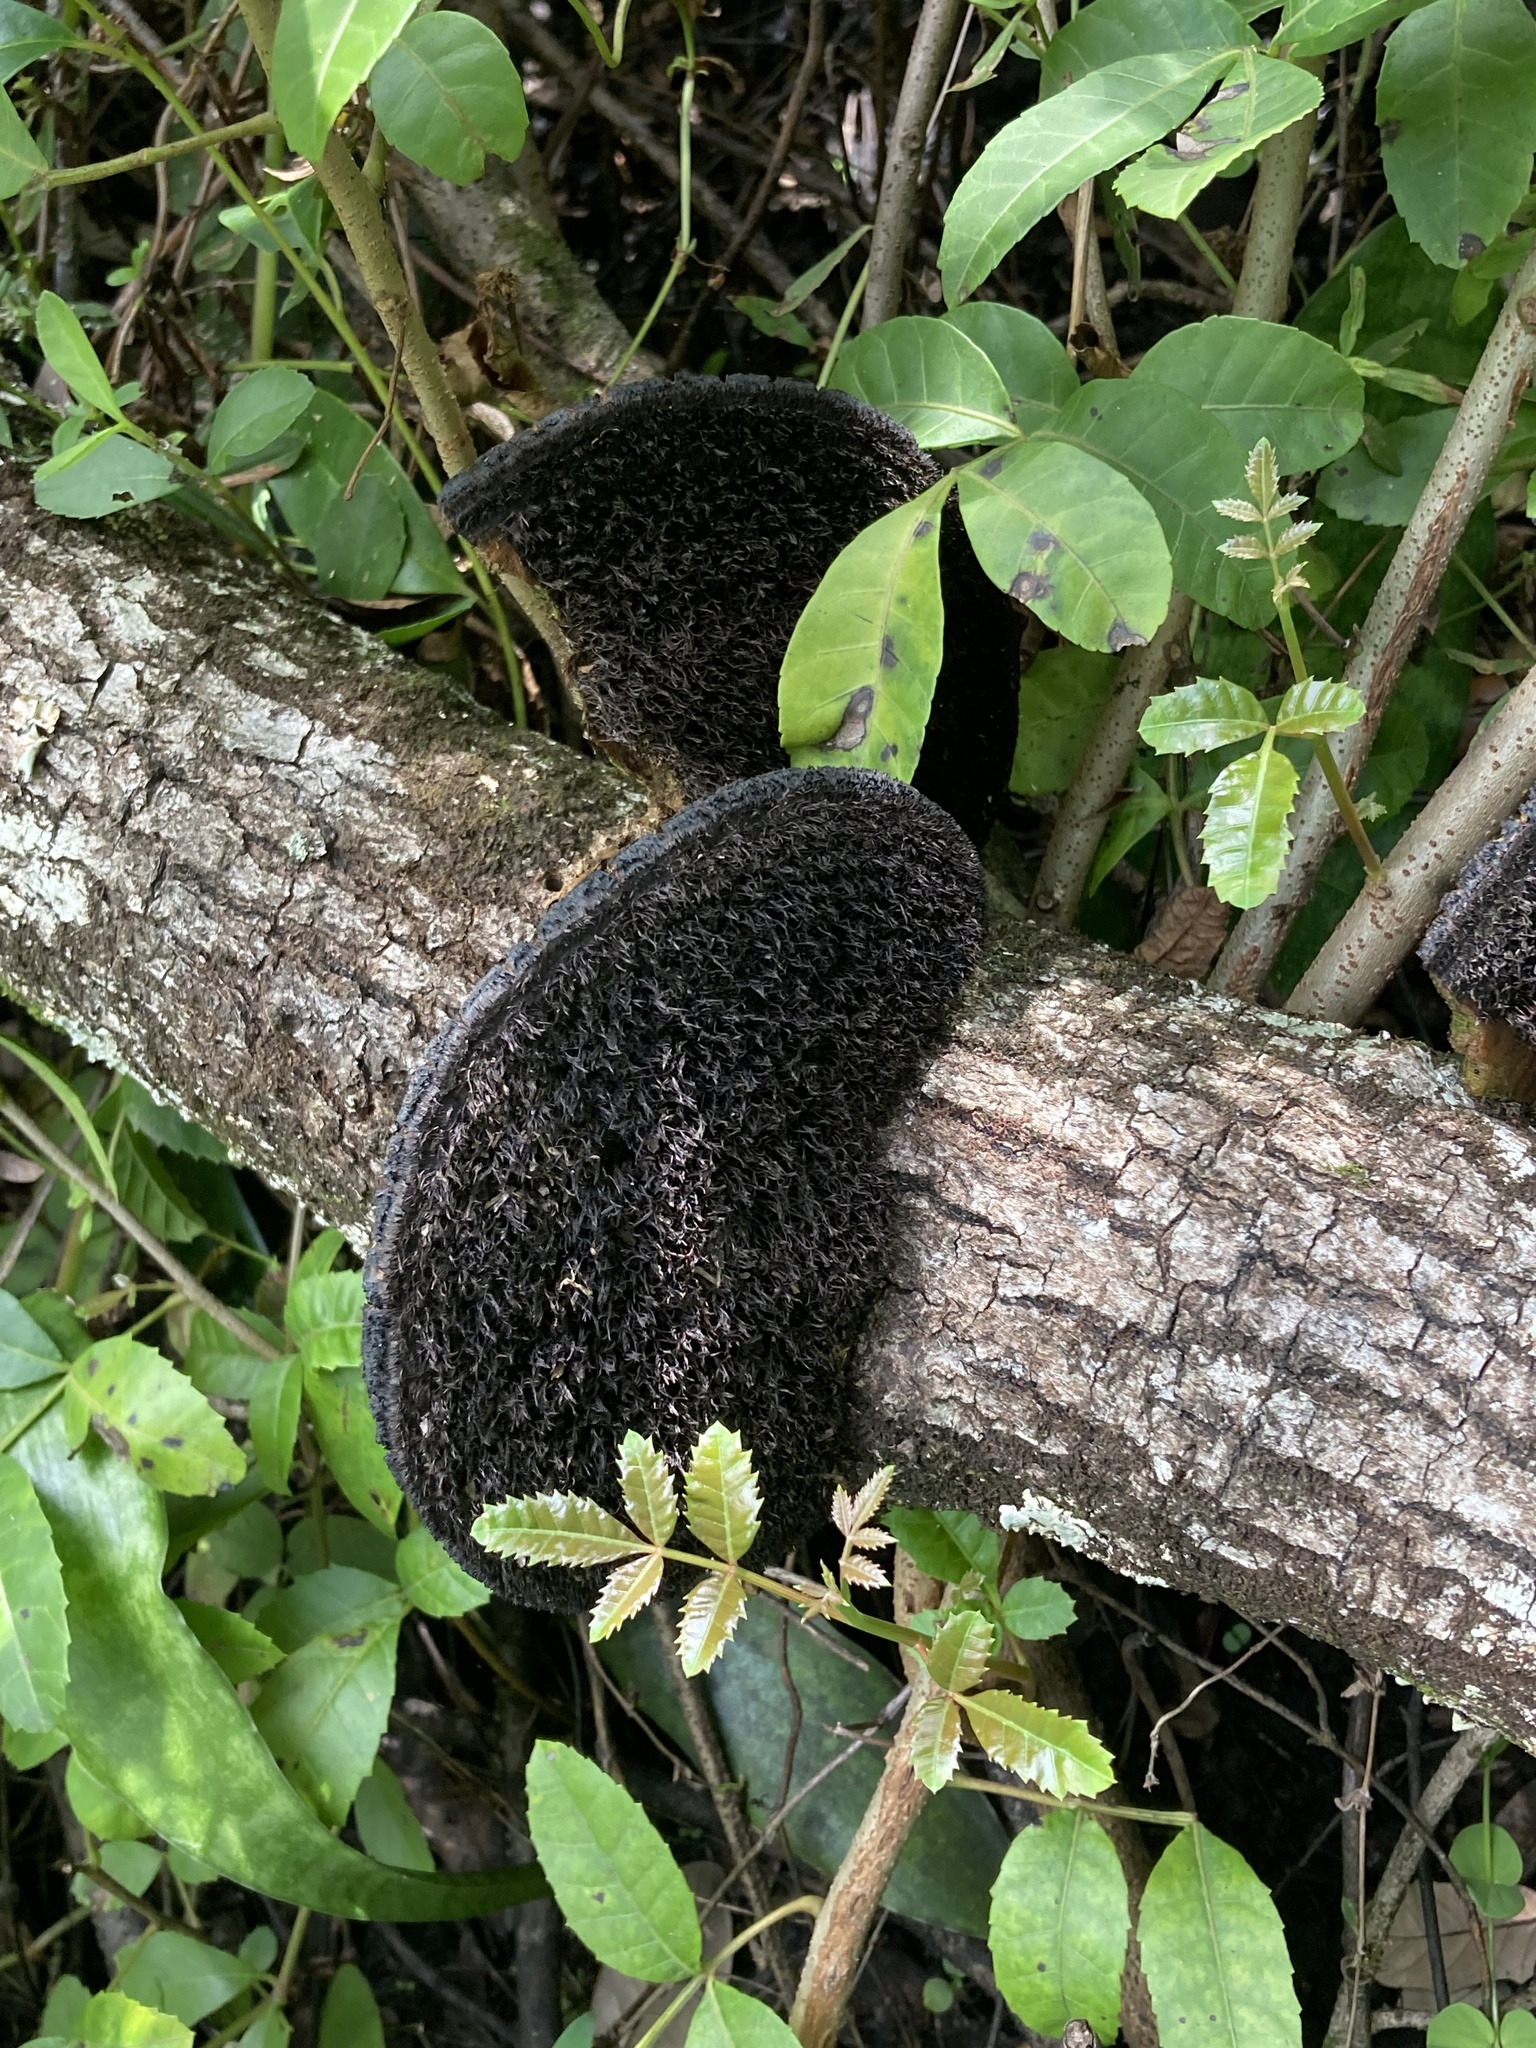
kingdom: Fungi
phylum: Basidiomycota
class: Agaricomycetes
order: Polyporales
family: Cerrenaceae
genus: Cerrena
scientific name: Cerrena hydnoides
